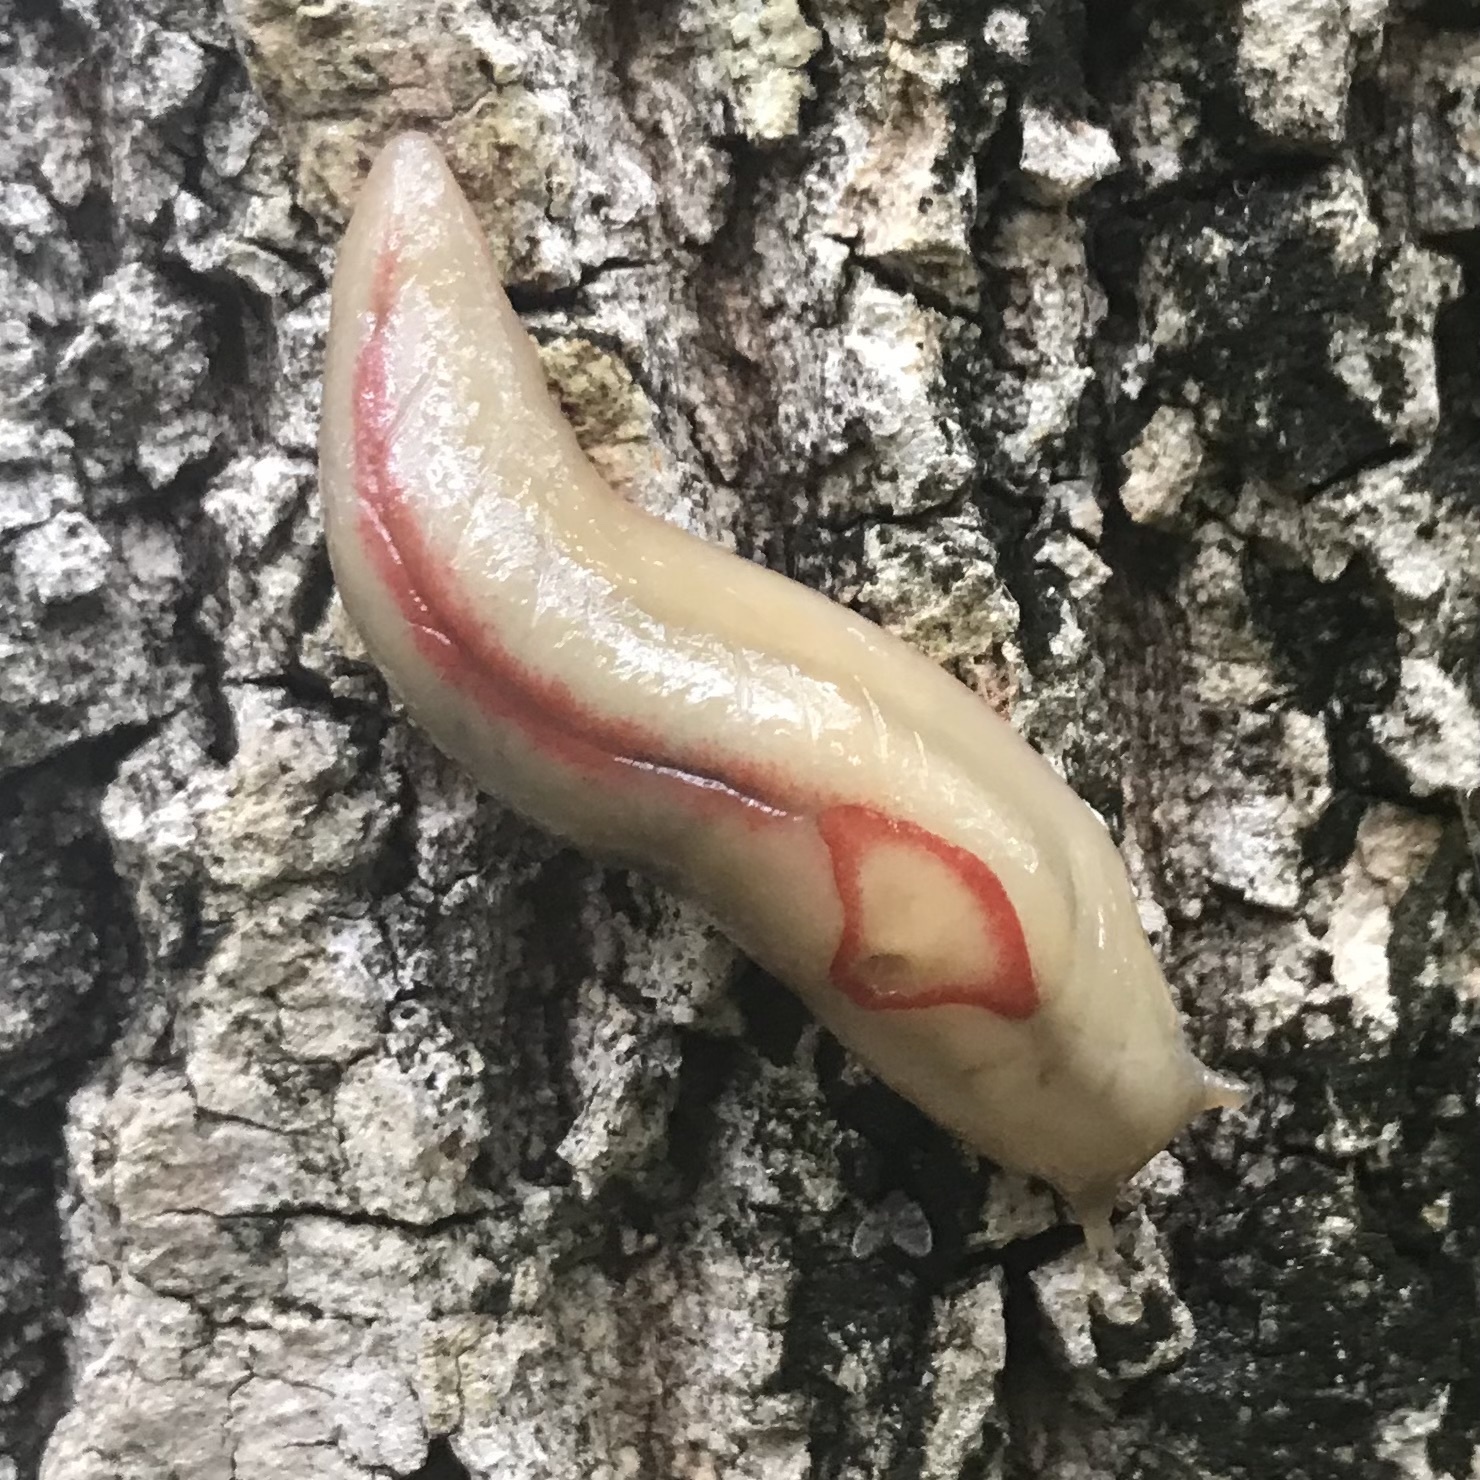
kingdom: Animalia
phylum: Mollusca
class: Gastropoda
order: Stylommatophora
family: Athoracophoridae
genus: Triboniophorus
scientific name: Triboniophorus graeffei
